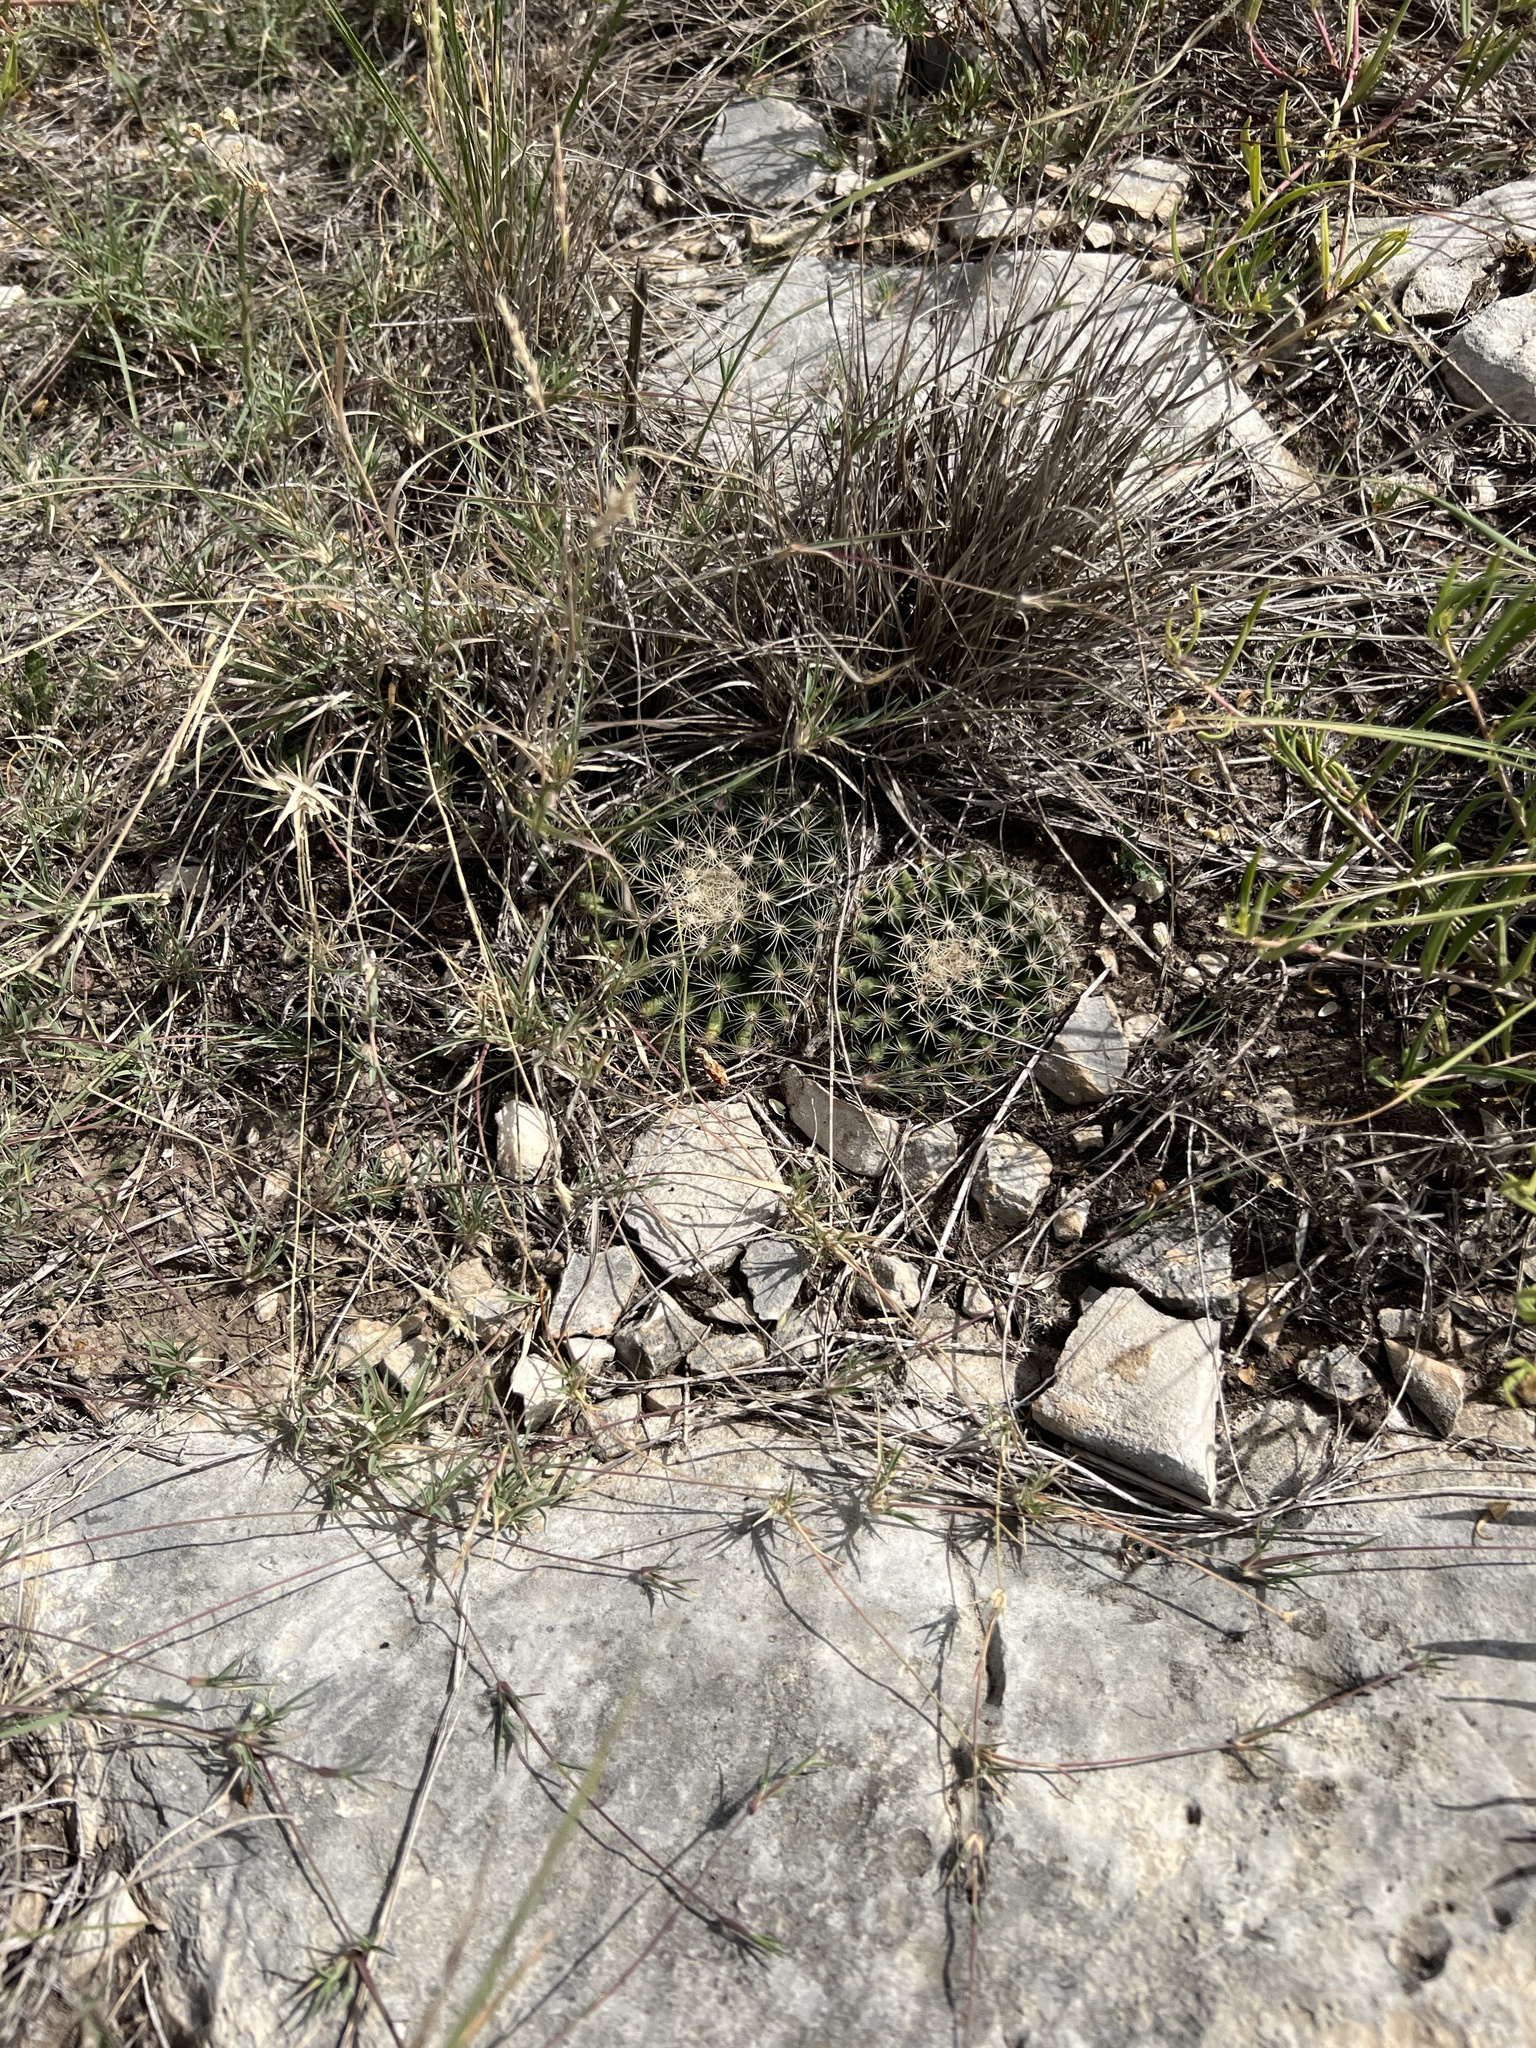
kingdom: Plantae
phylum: Tracheophyta
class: Magnoliopsida
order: Caryophyllales
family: Cactaceae
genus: Mammillaria
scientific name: Mammillaria heyderi
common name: Little nipple cactus
